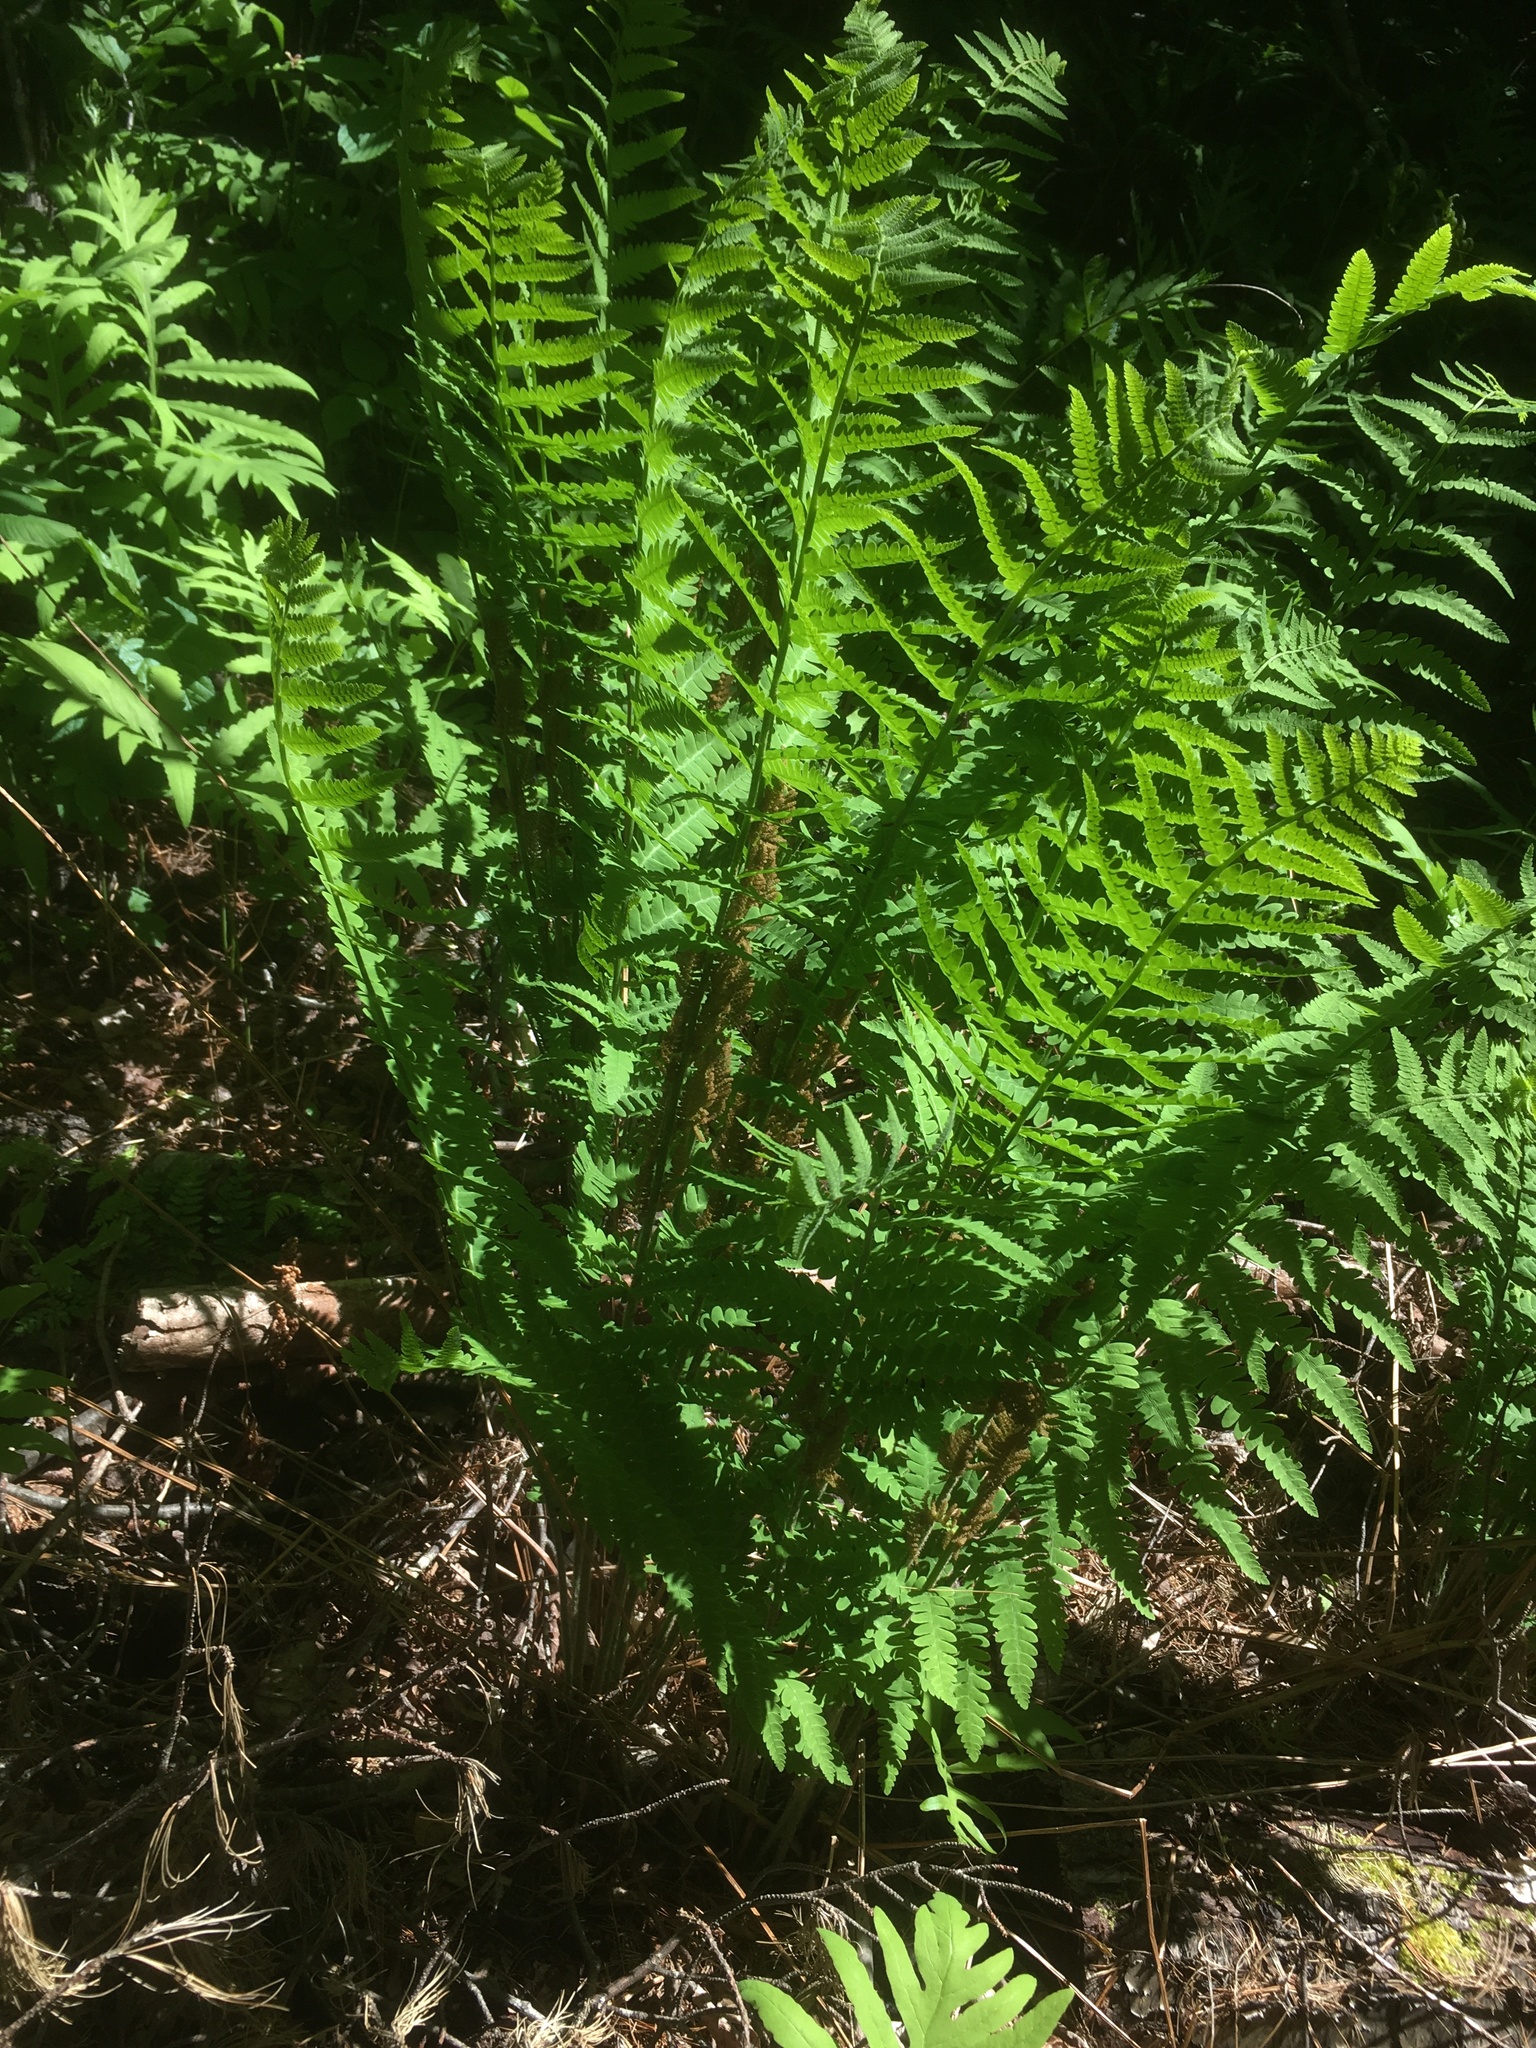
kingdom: Plantae
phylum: Tracheophyta
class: Polypodiopsida
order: Osmundales
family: Osmundaceae
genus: Claytosmunda
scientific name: Claytosmunda claytoniana
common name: Clayton's fern
